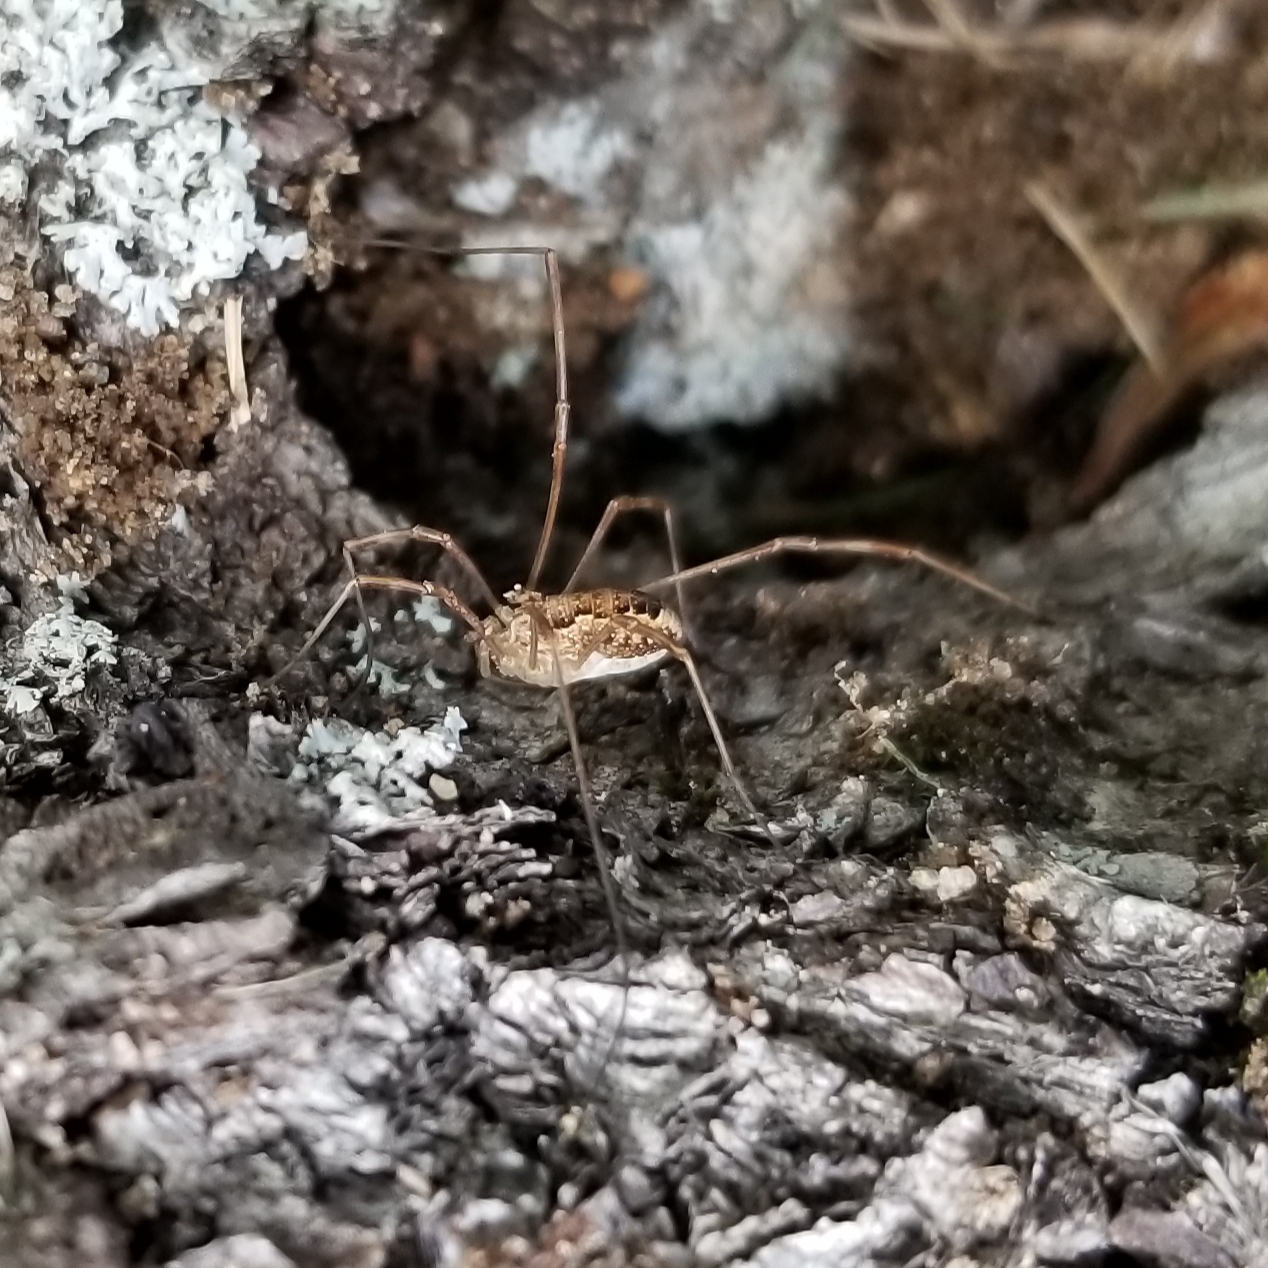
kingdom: Animalia
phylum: Arthropoda
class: Arachnida
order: Opiliones
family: Phalangiidae
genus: Rilaena
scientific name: Rilaena triangularis
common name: Spring harvestman
